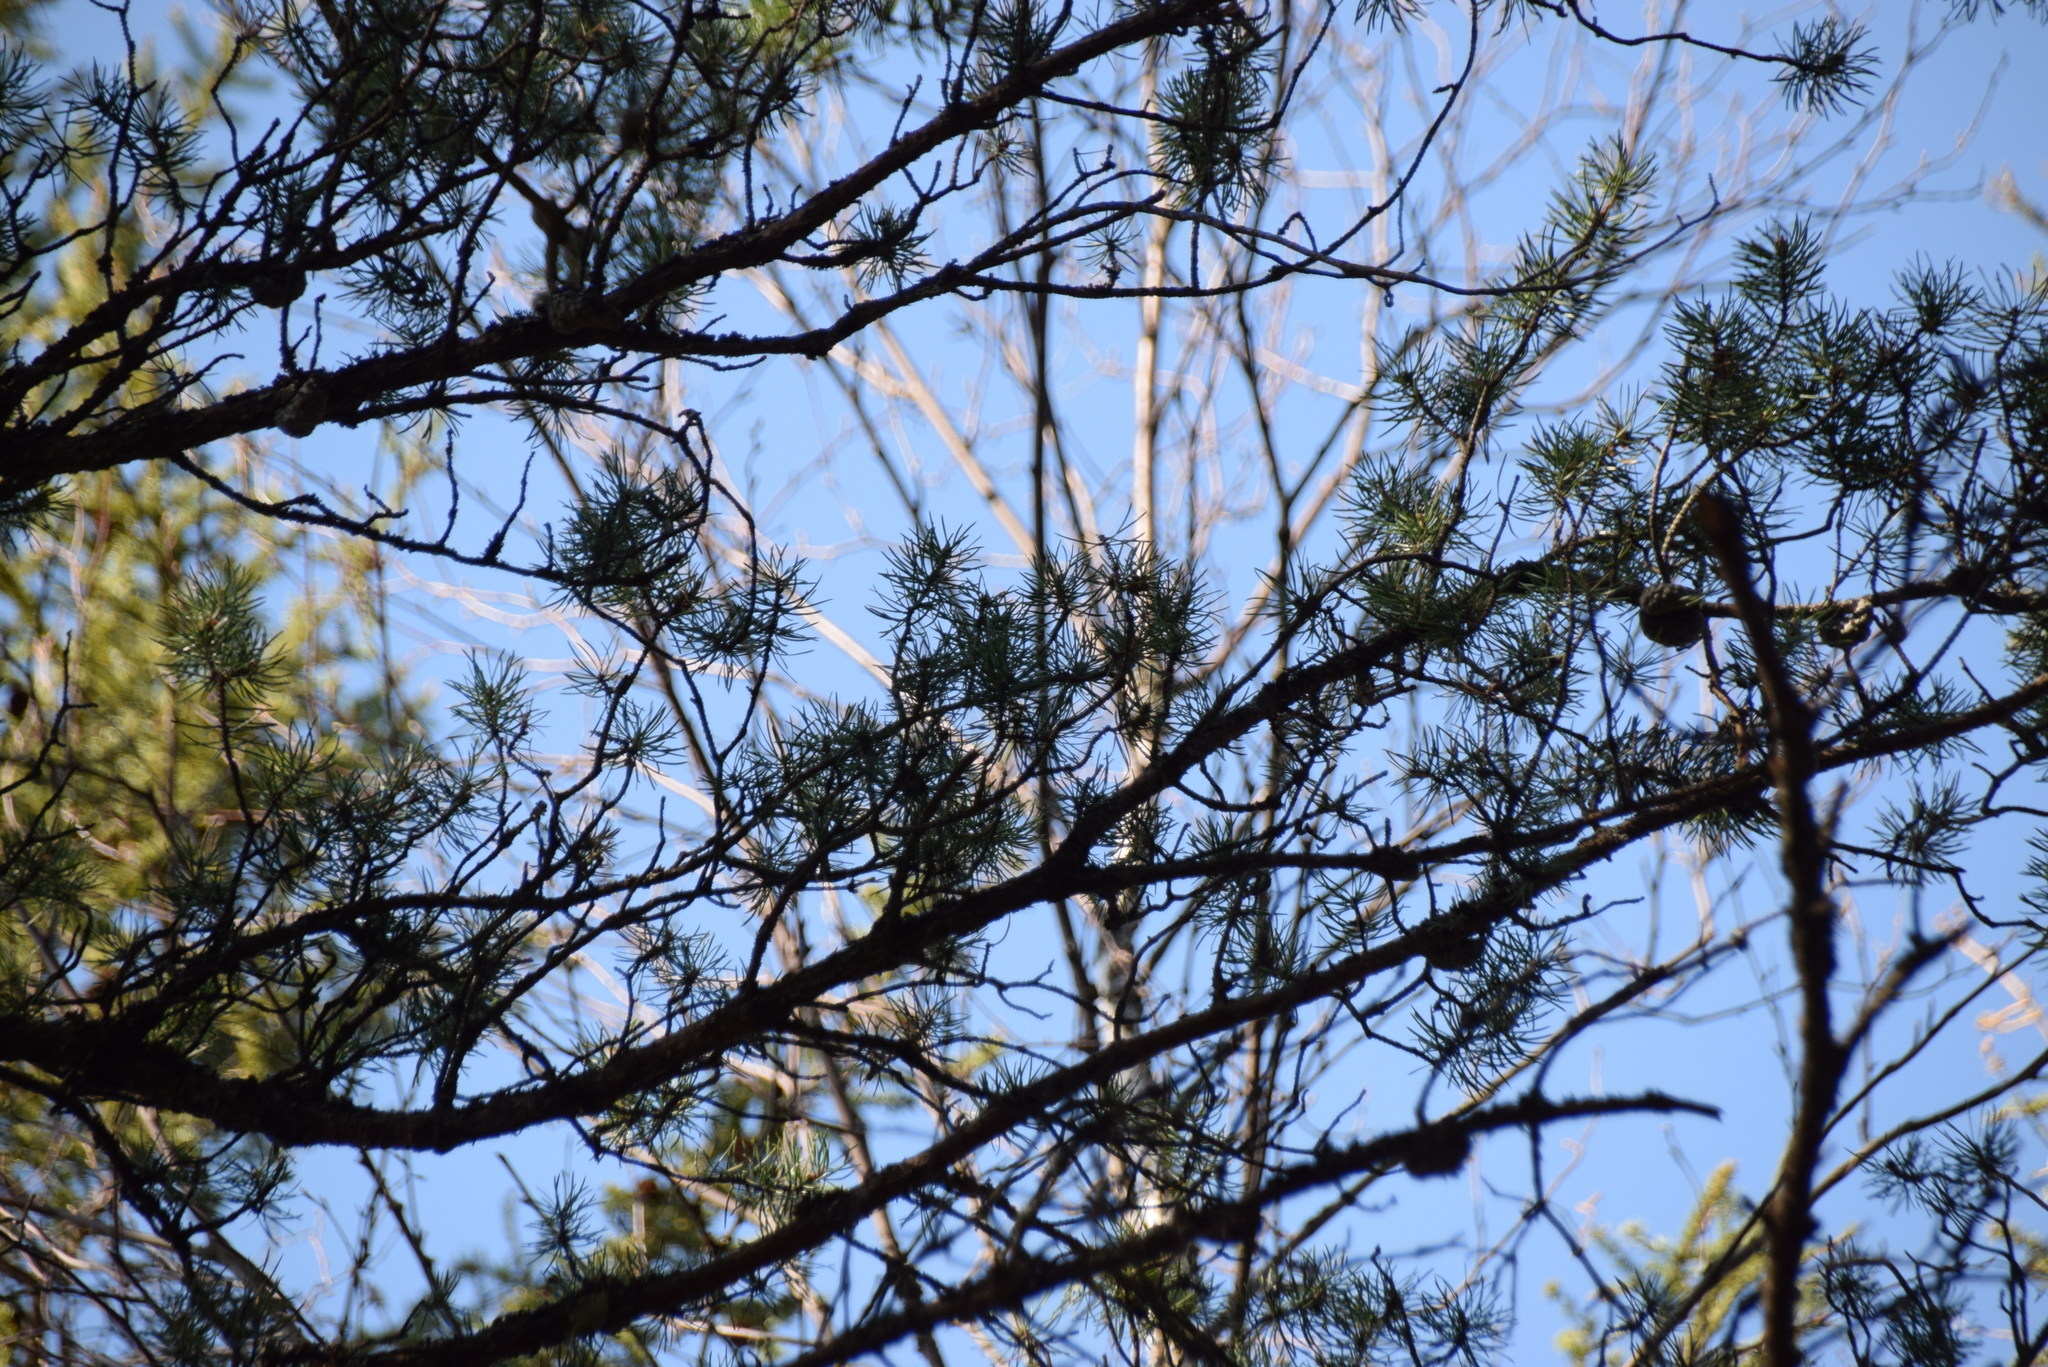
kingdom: Plantae
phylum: Tracheophyta
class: Pinopsida
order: Pinales
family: Pinaceae
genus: Pinus
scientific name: Pinus banksiana
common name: Jack pine
